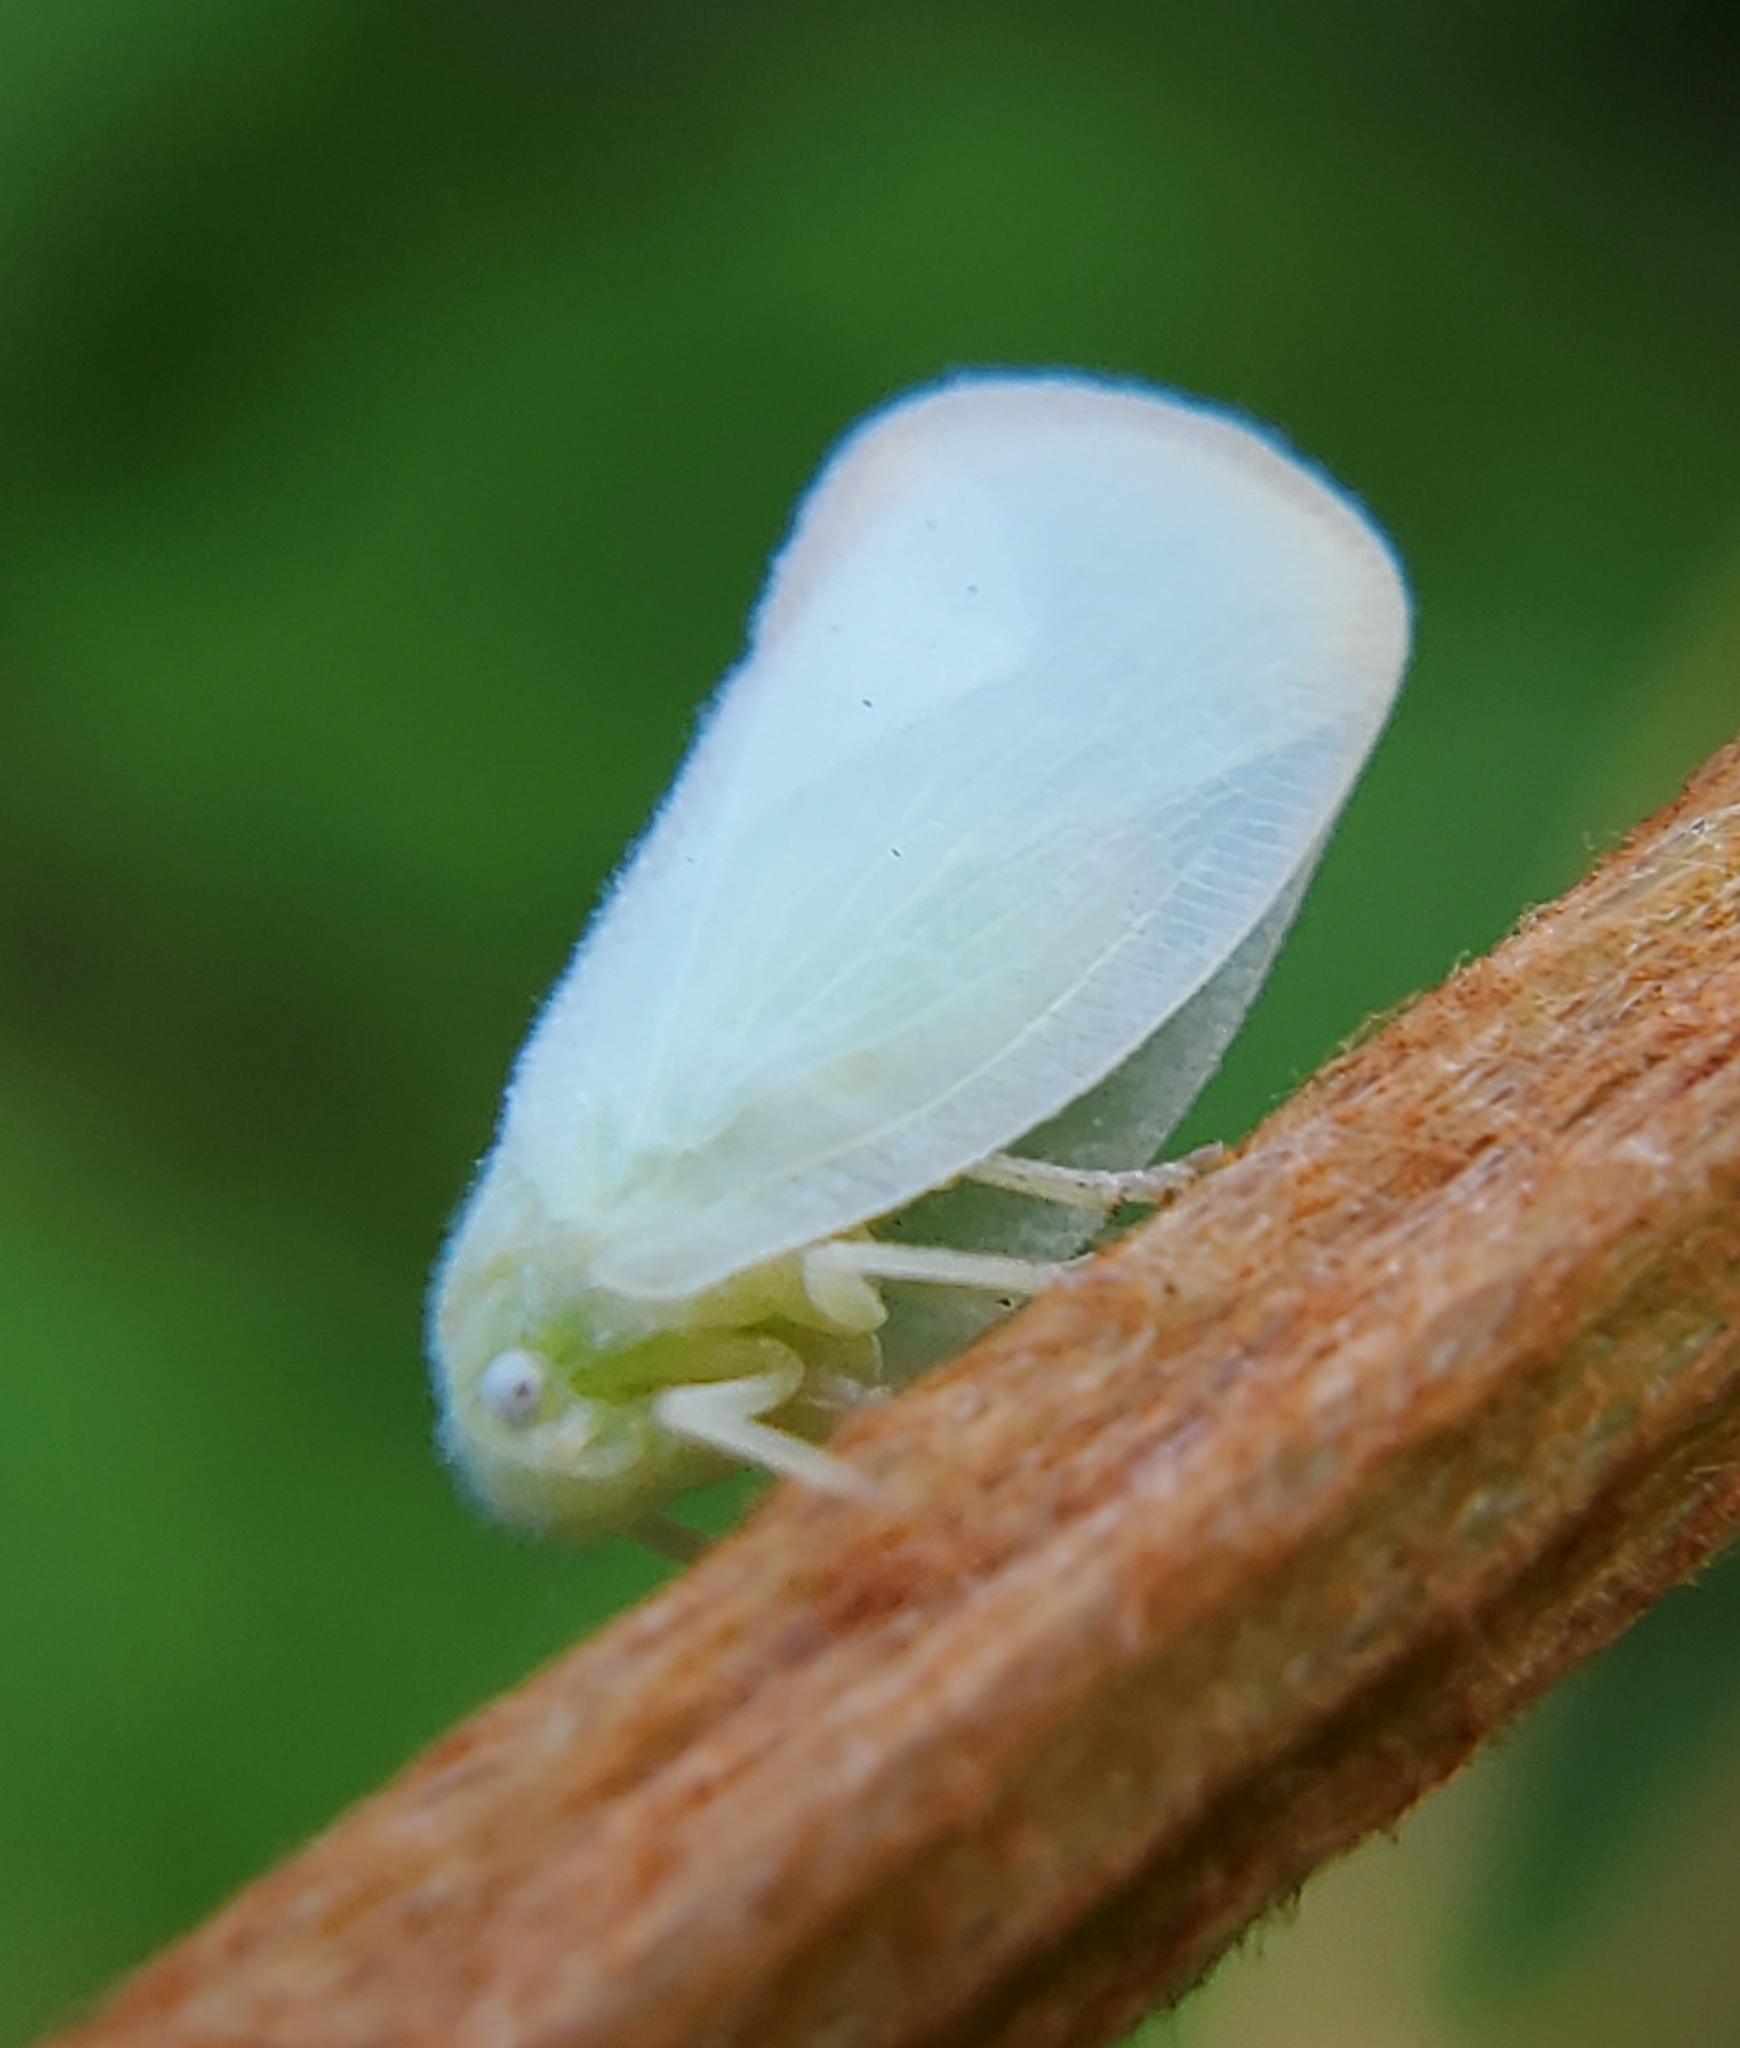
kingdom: Animalia
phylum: Arthropoda
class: Insecta
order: Hemiptera
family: Flatidae
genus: Ormenoides
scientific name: Ormenoides venusta
